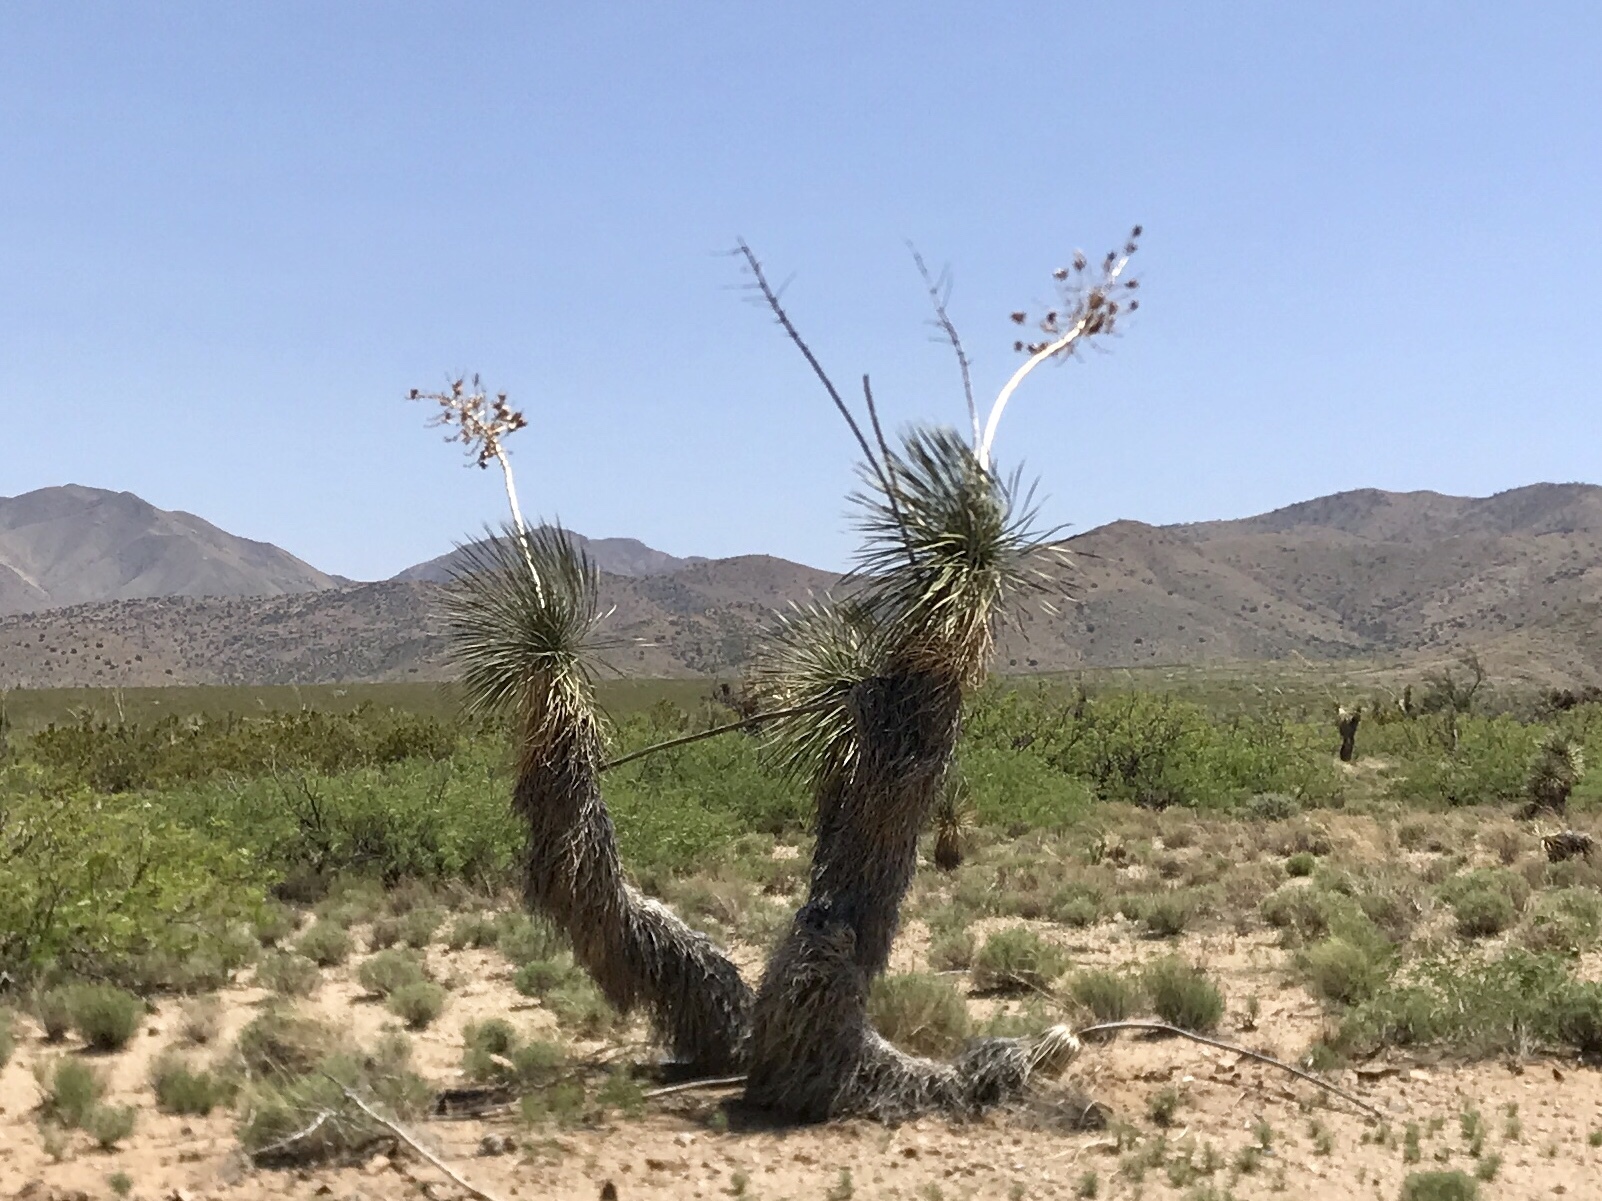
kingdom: Plantae
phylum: Tracheophyta
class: Liliopsida
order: Asparagales
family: Asparagaceae
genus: Yucca
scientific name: Yucca elata
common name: Palmella
